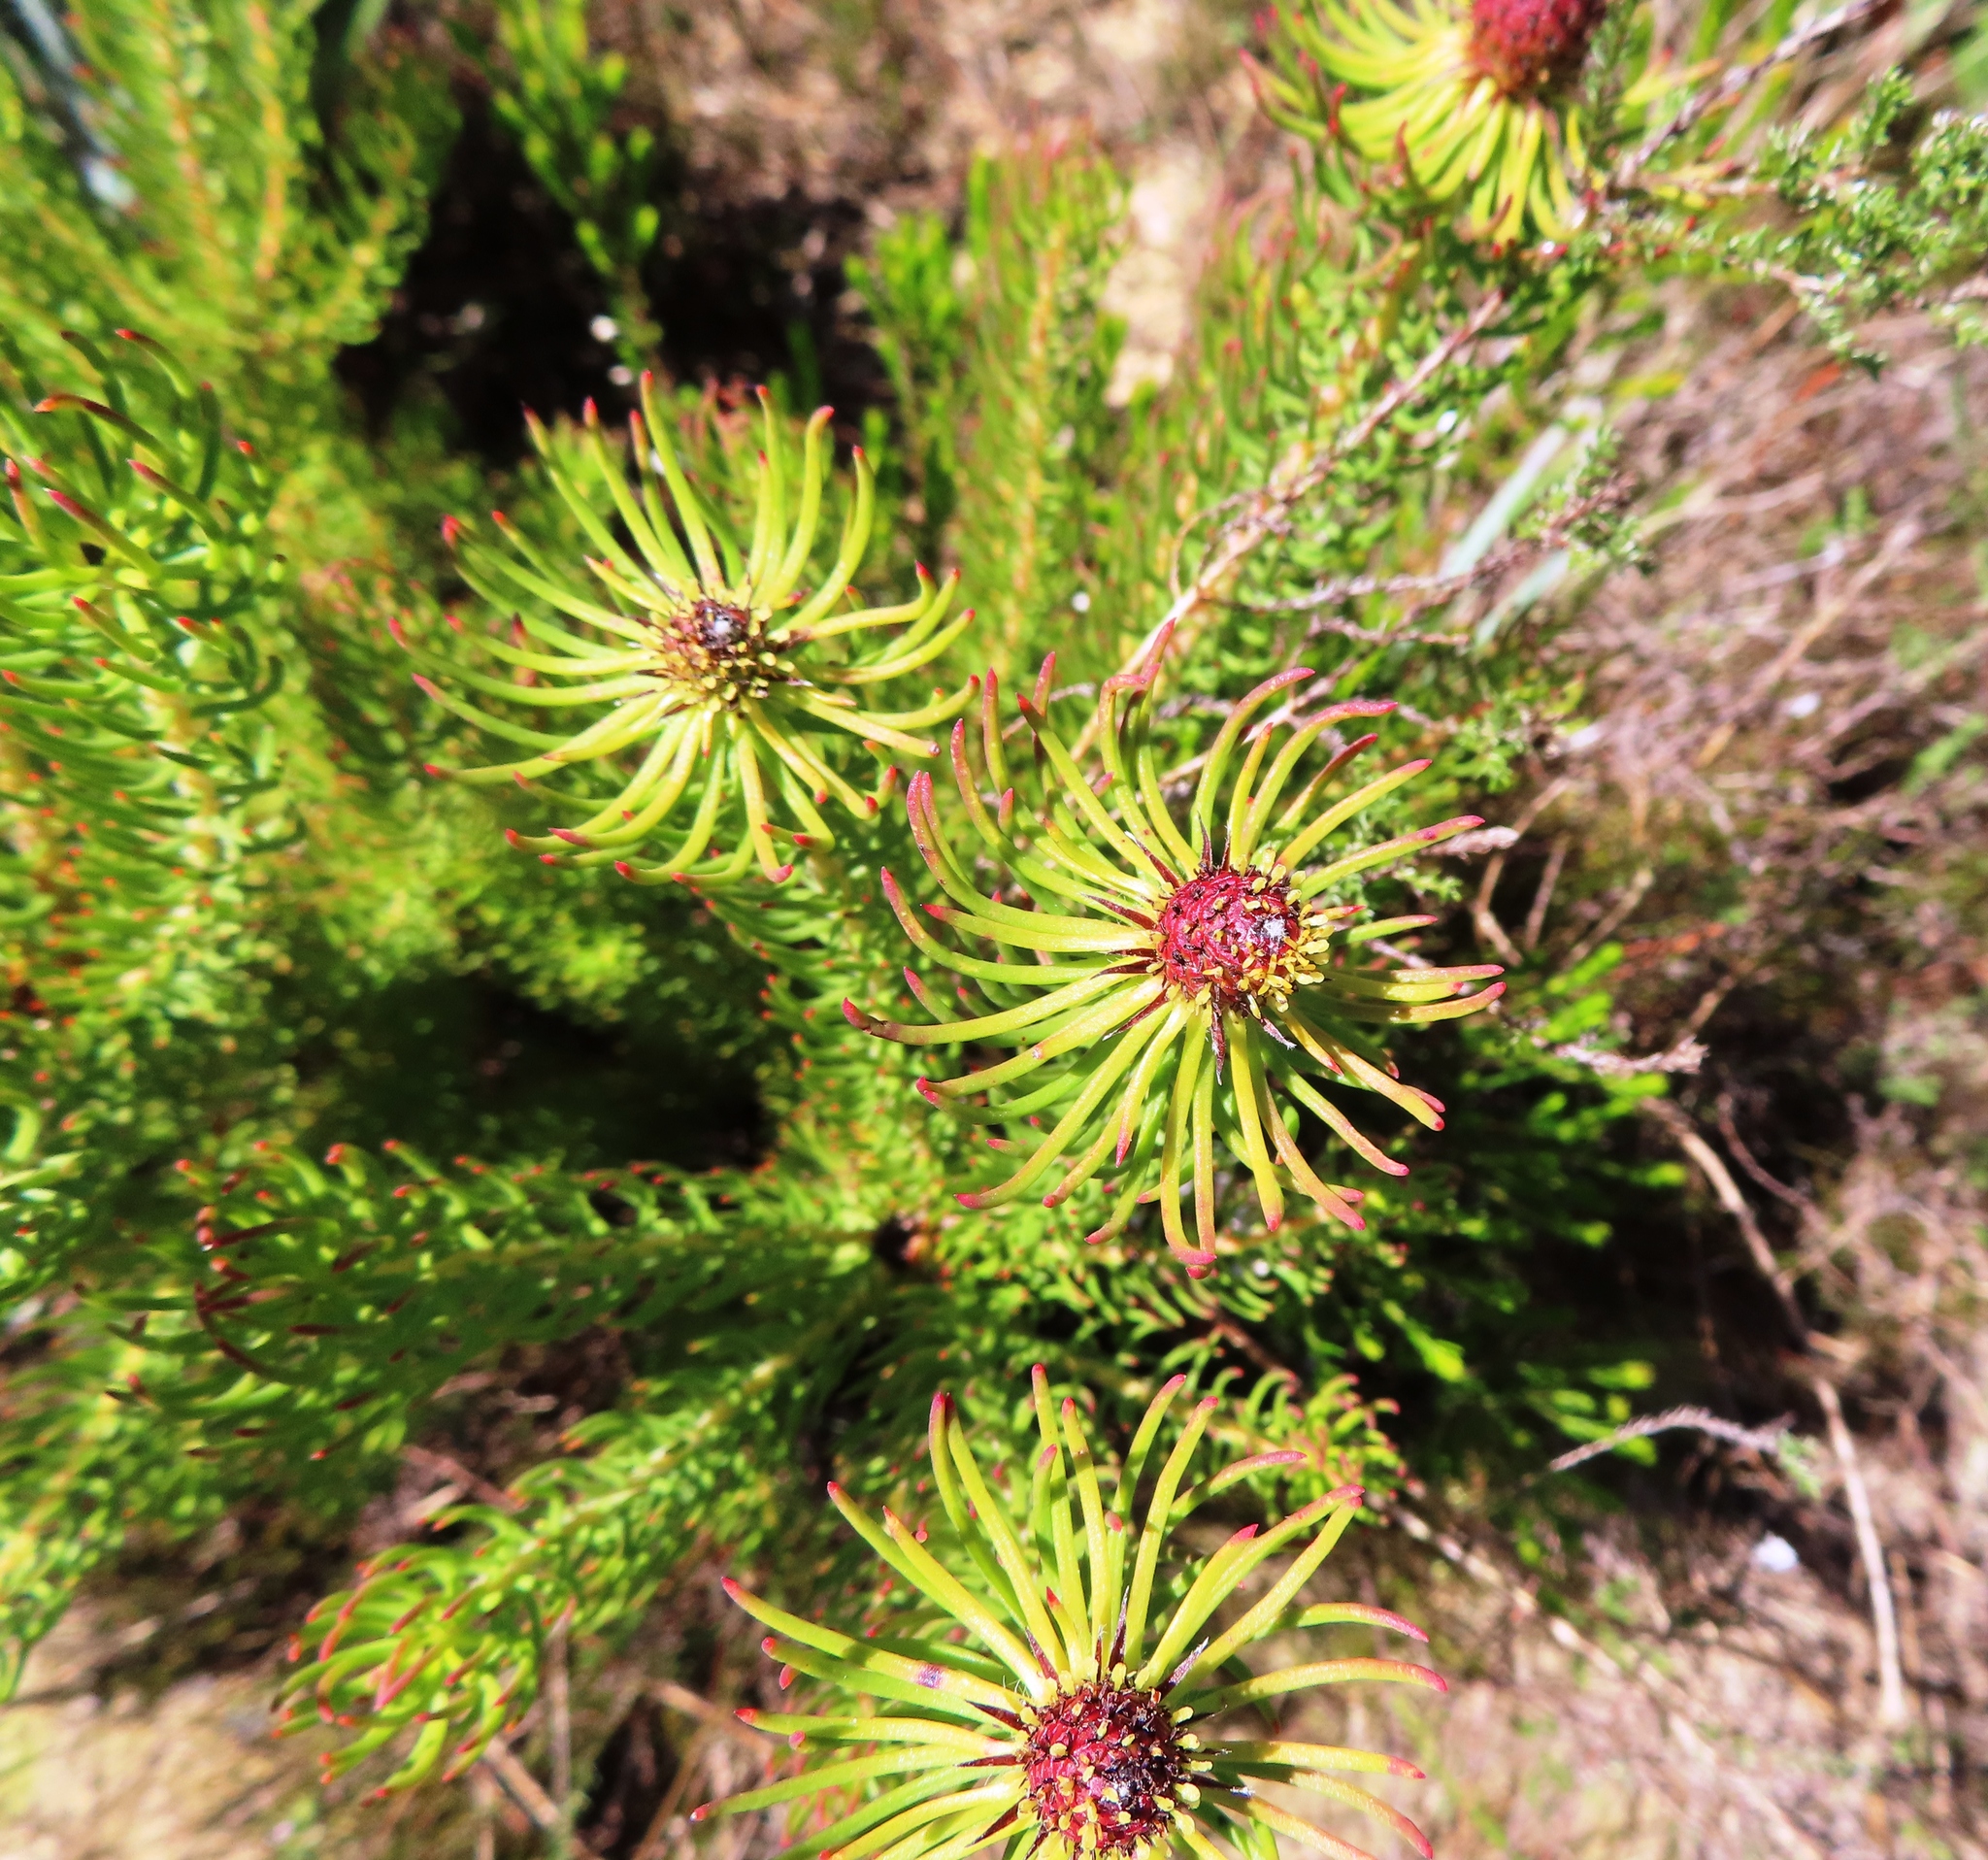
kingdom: Plantae
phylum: Tracheophyta
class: Magnoliopsida
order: Proteales
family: Proteaceae
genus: Leucadendron
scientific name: Leucadendron teretifolium
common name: Needle-leaf conebush
